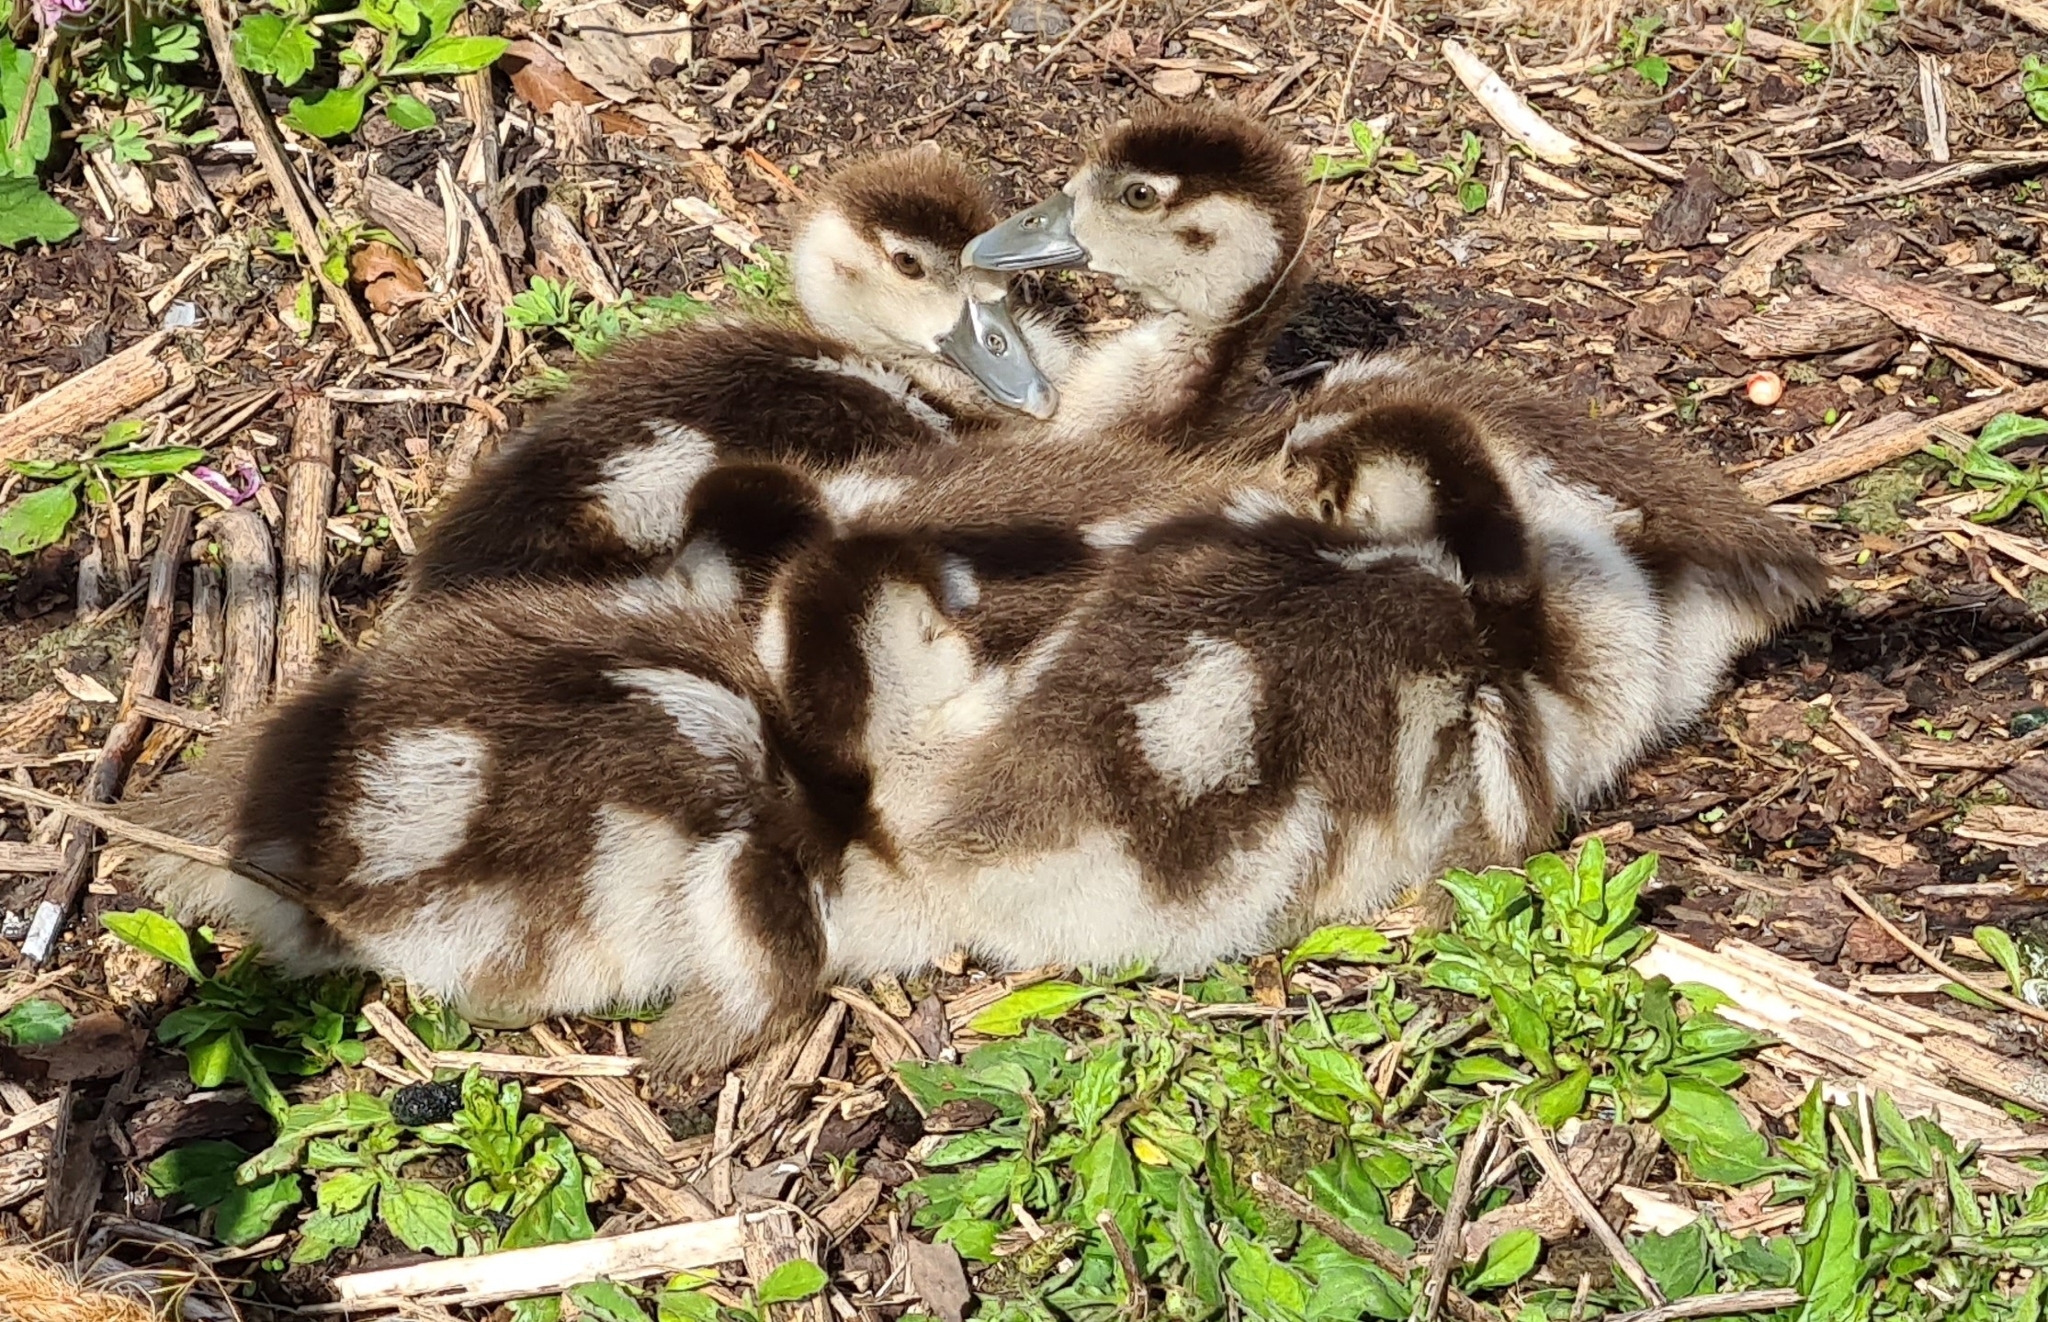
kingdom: Animalia
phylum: Chordata
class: Aves
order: Anseriformes
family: Anatidae
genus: Alopochen
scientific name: Alopochen aegyptiaca
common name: Egyptian goose
